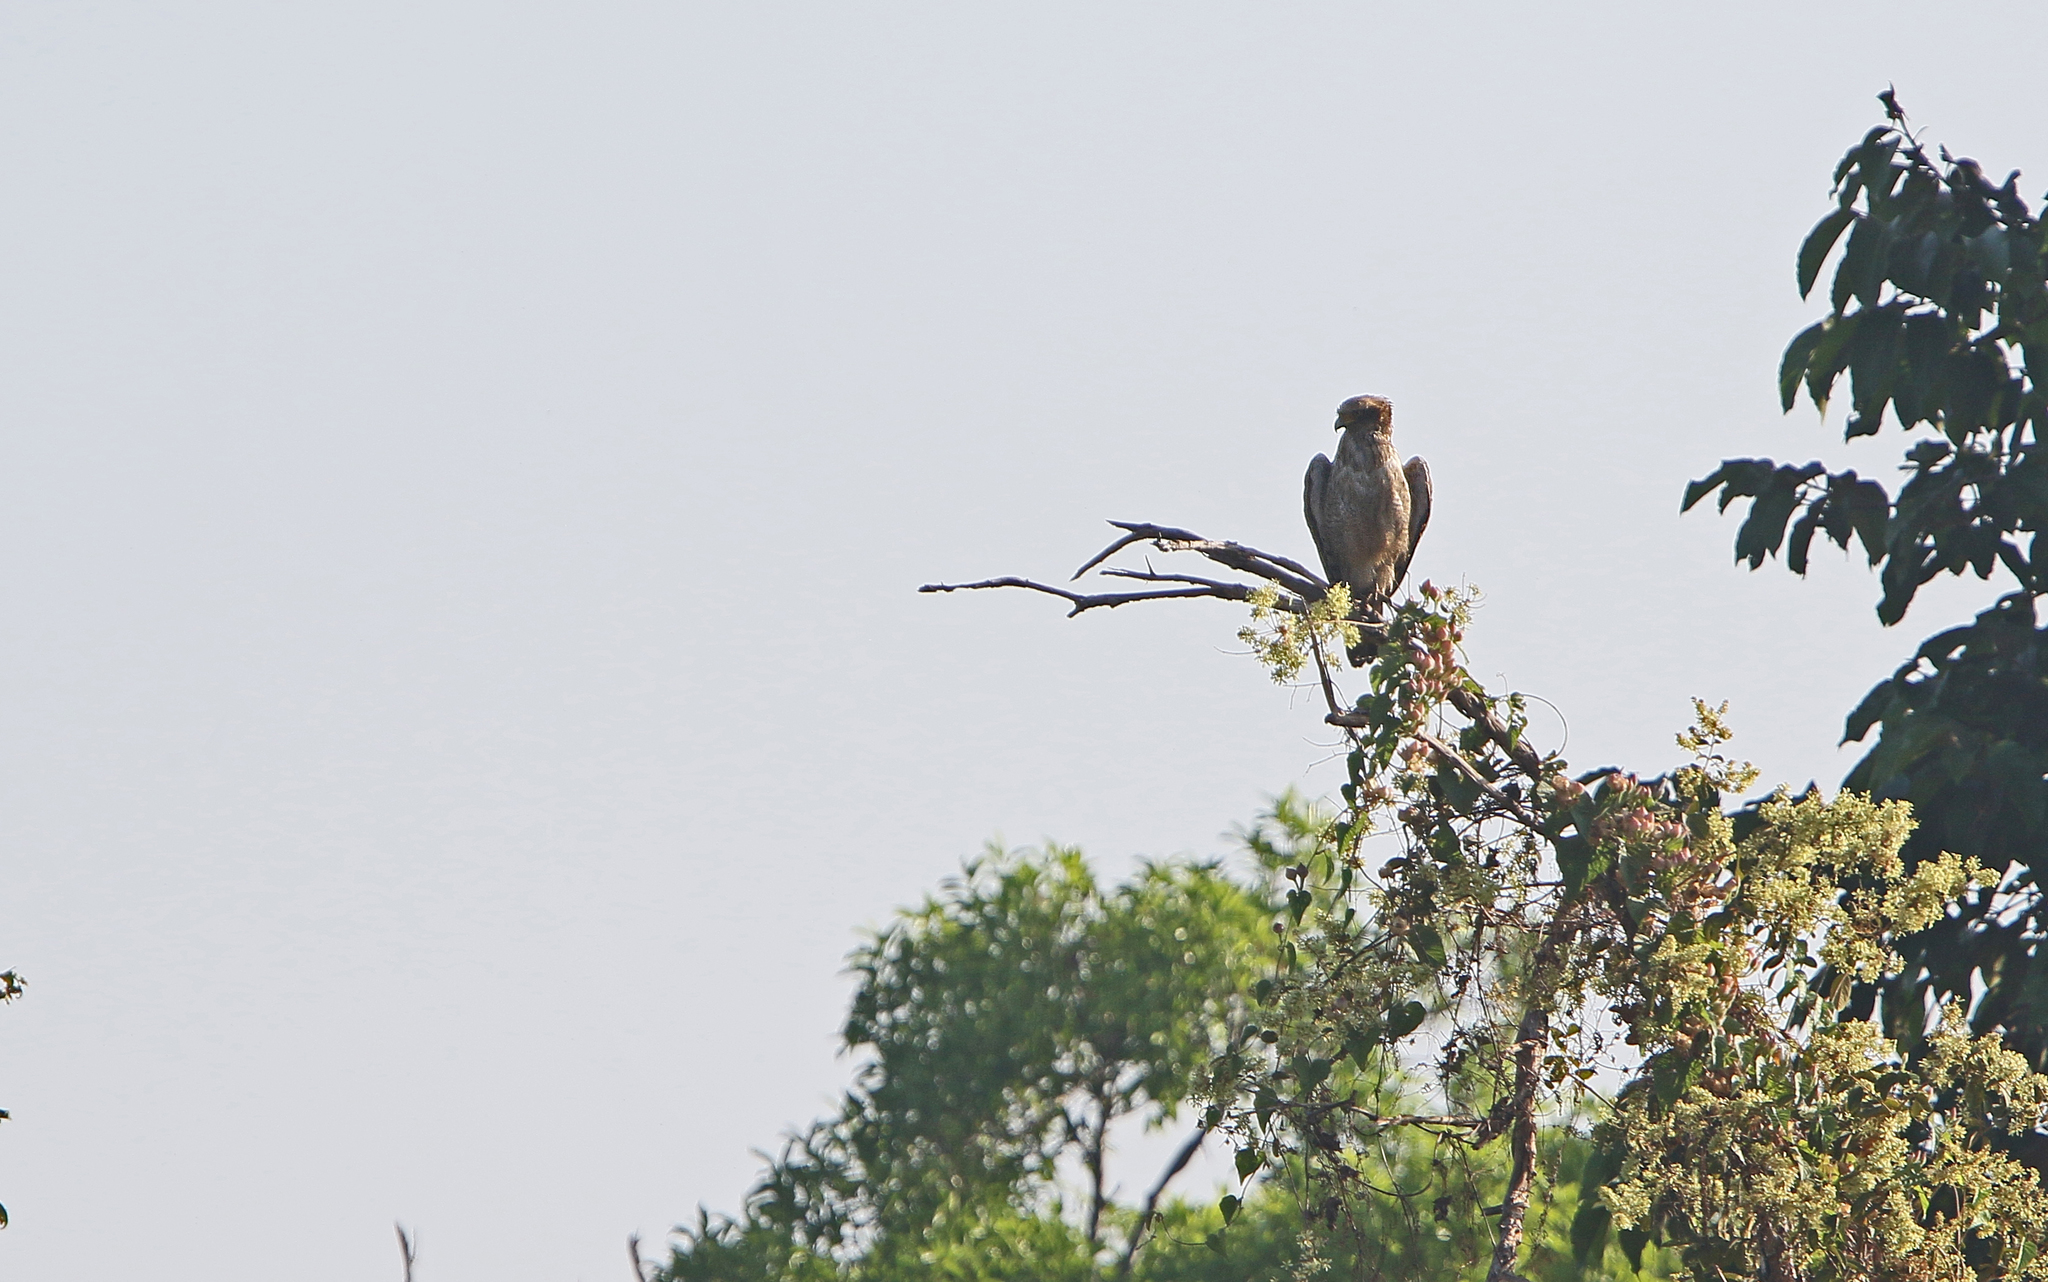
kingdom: Animalia
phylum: Chordata
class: Aves
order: Accipitriformes
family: Accipitridae
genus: Spilornis
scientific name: Spilornis cheela
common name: Crested serpent eagle
